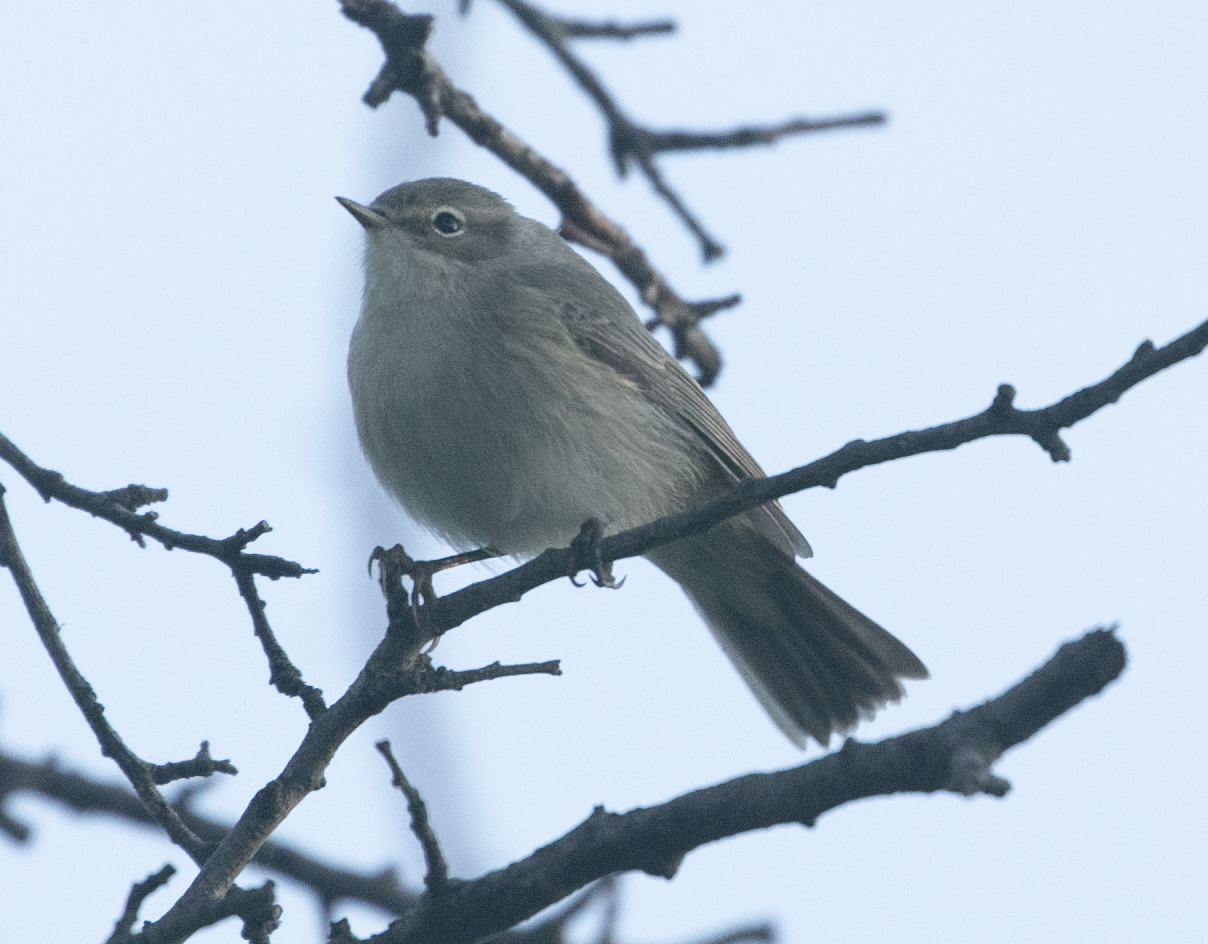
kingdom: Animalia
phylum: Chordata
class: Aves
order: Passeriformes
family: Phylloscopidae
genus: Phylloscopus
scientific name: Phylloscopus collybita
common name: Common chiffchaff
